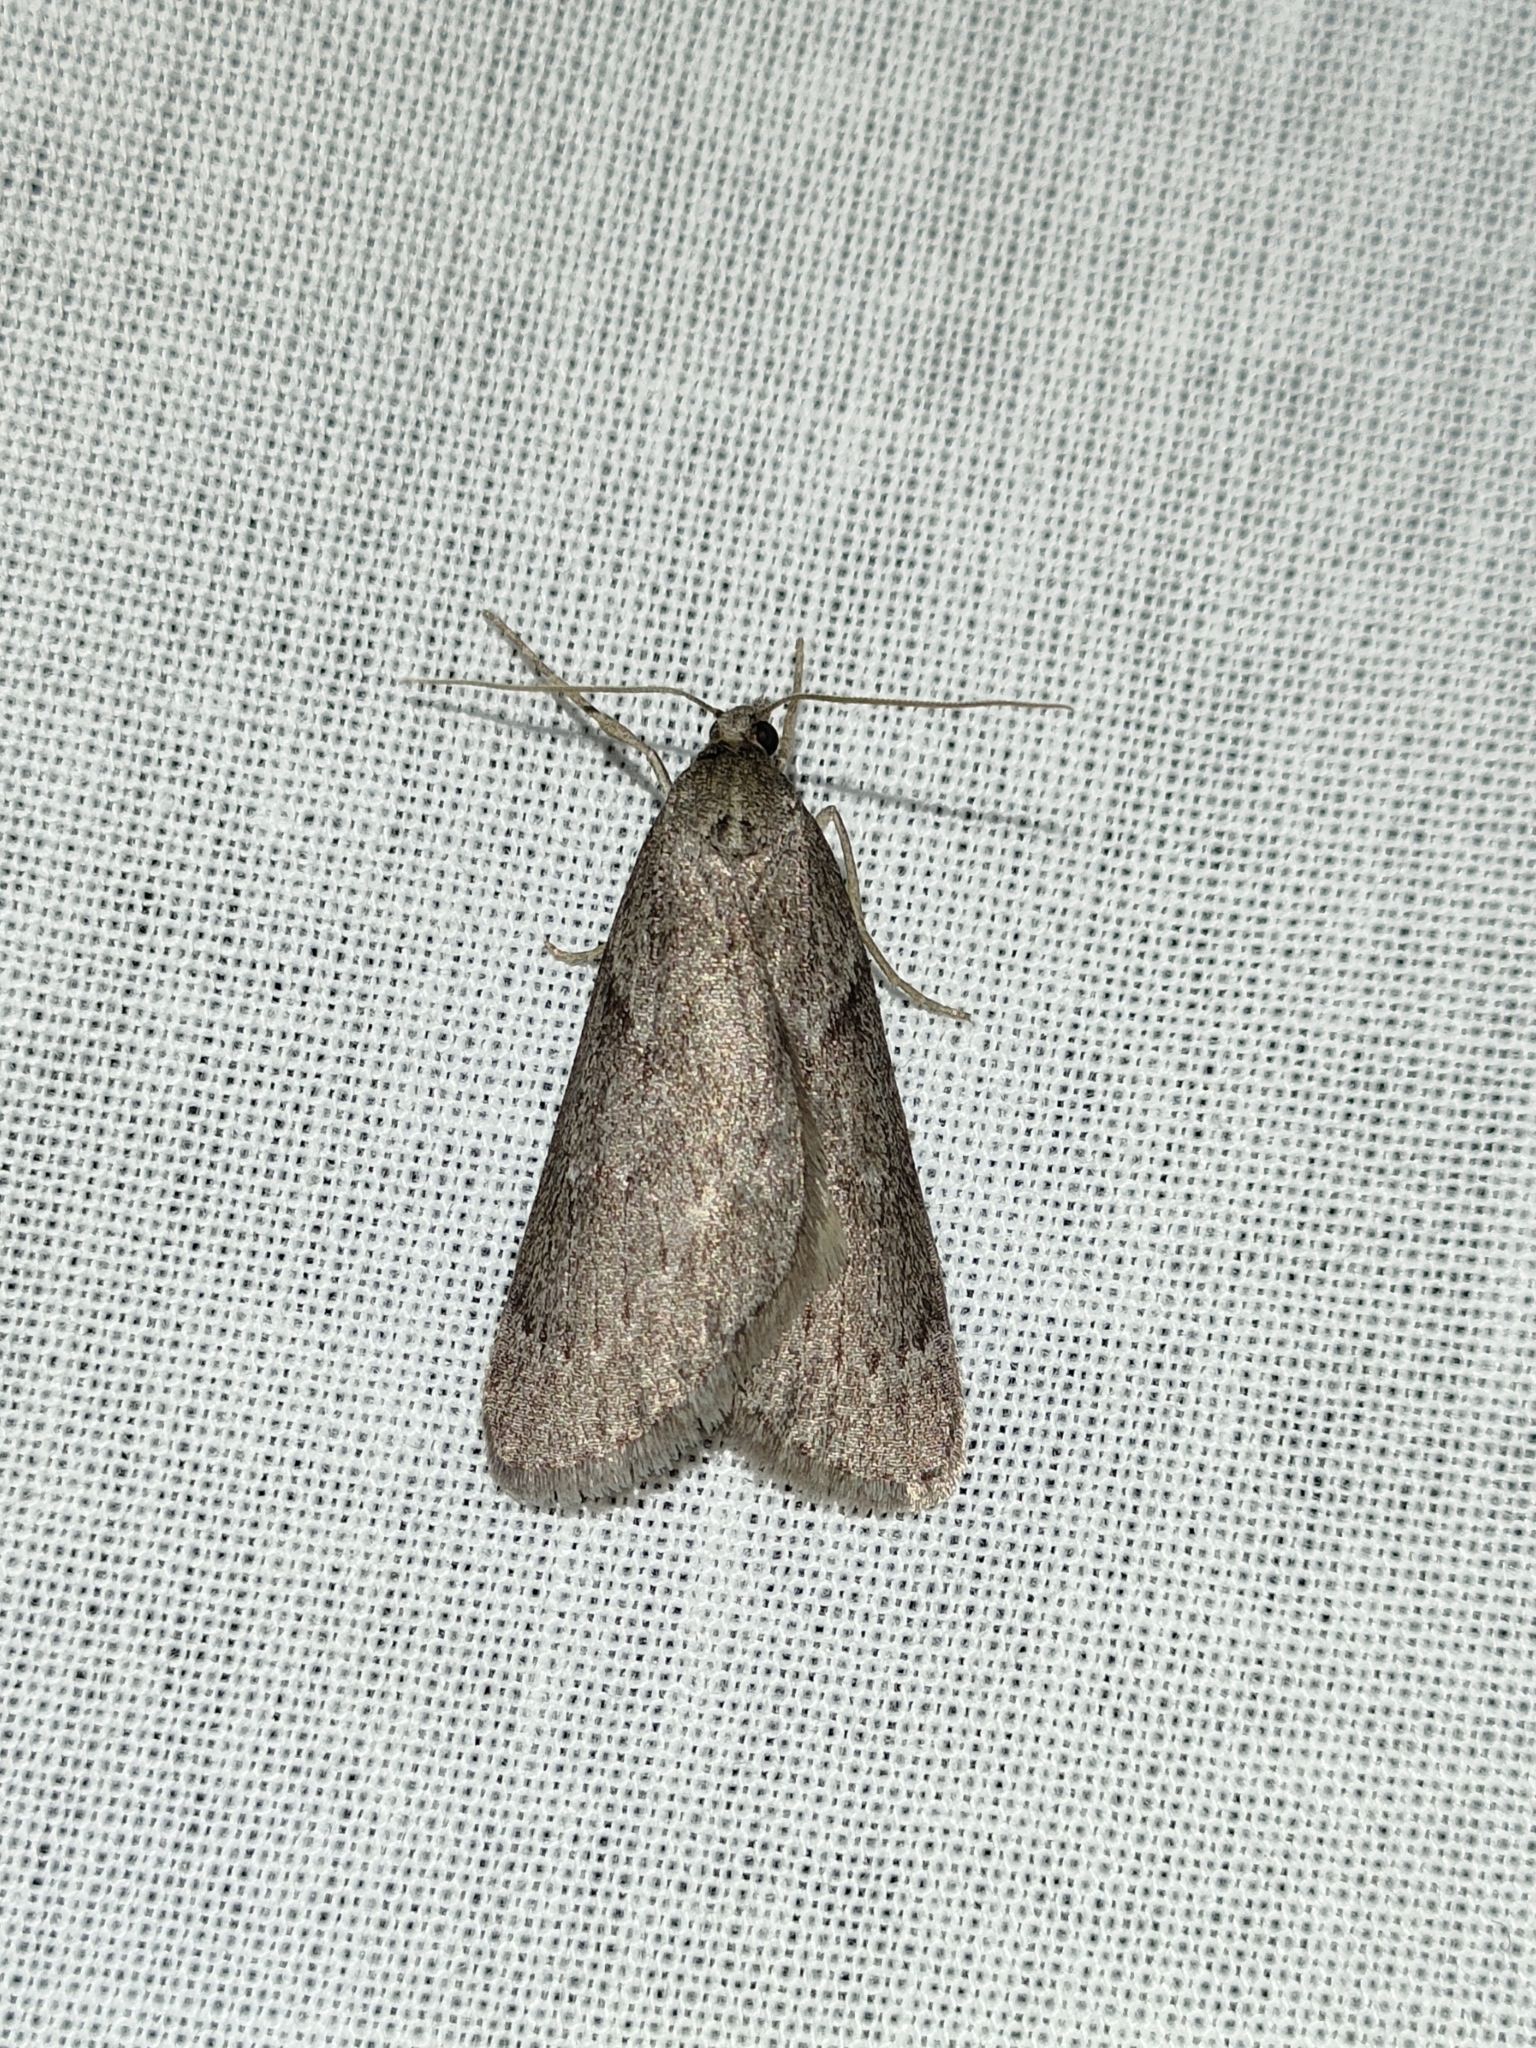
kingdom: Animalia
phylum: Arthropoda
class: Insecta
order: Lepidoptera
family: Geometridae
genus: Pachycnemia
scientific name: Pachycnemia hippocastanaria
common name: Horse chestnut
